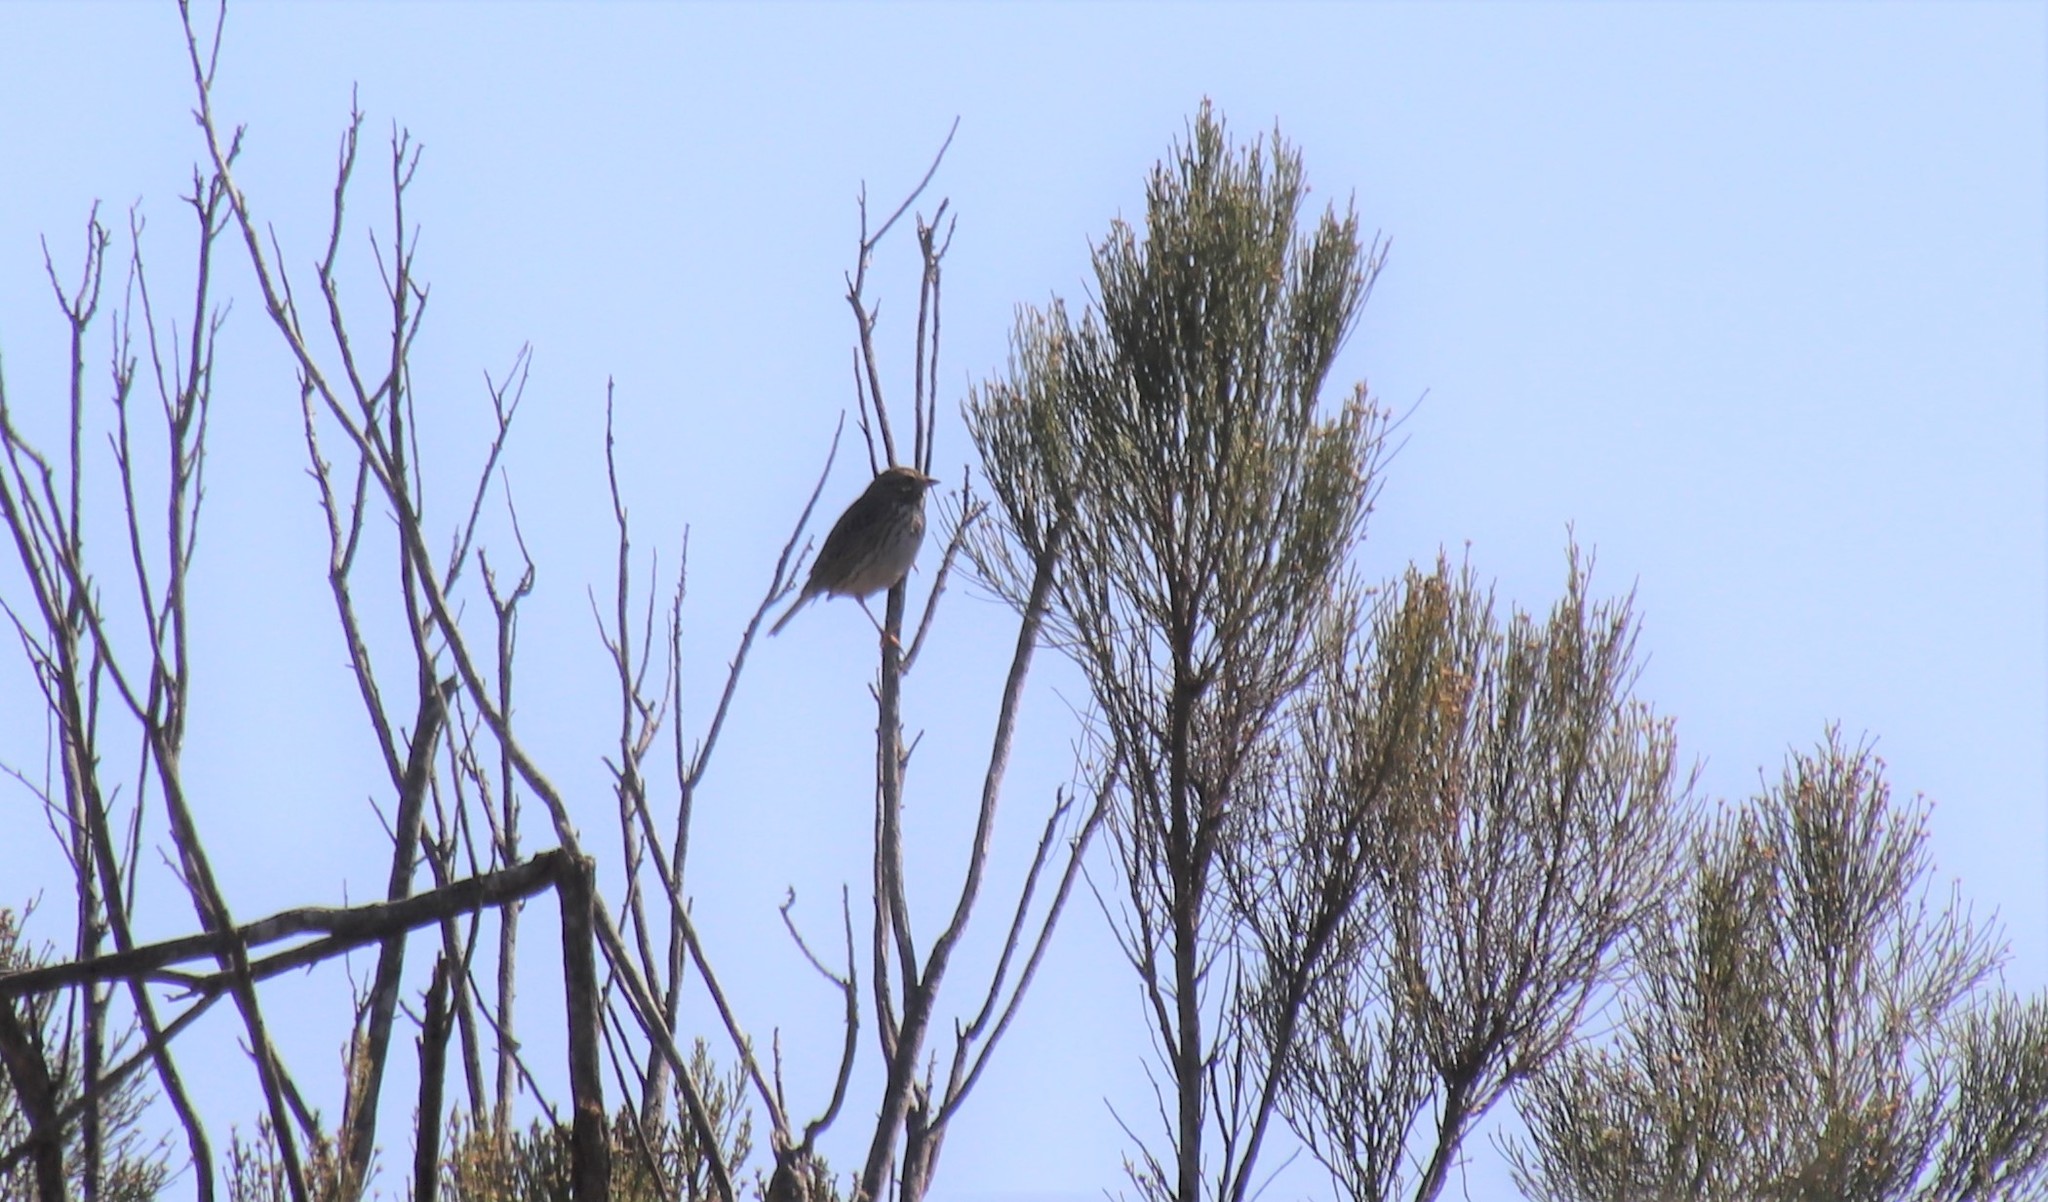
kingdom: Animalia
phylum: Chordata
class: Aves
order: Passeriformes
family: Passerellidae
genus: Passerculus
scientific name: Passerculus sandwichensis
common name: Savannah sparrow
